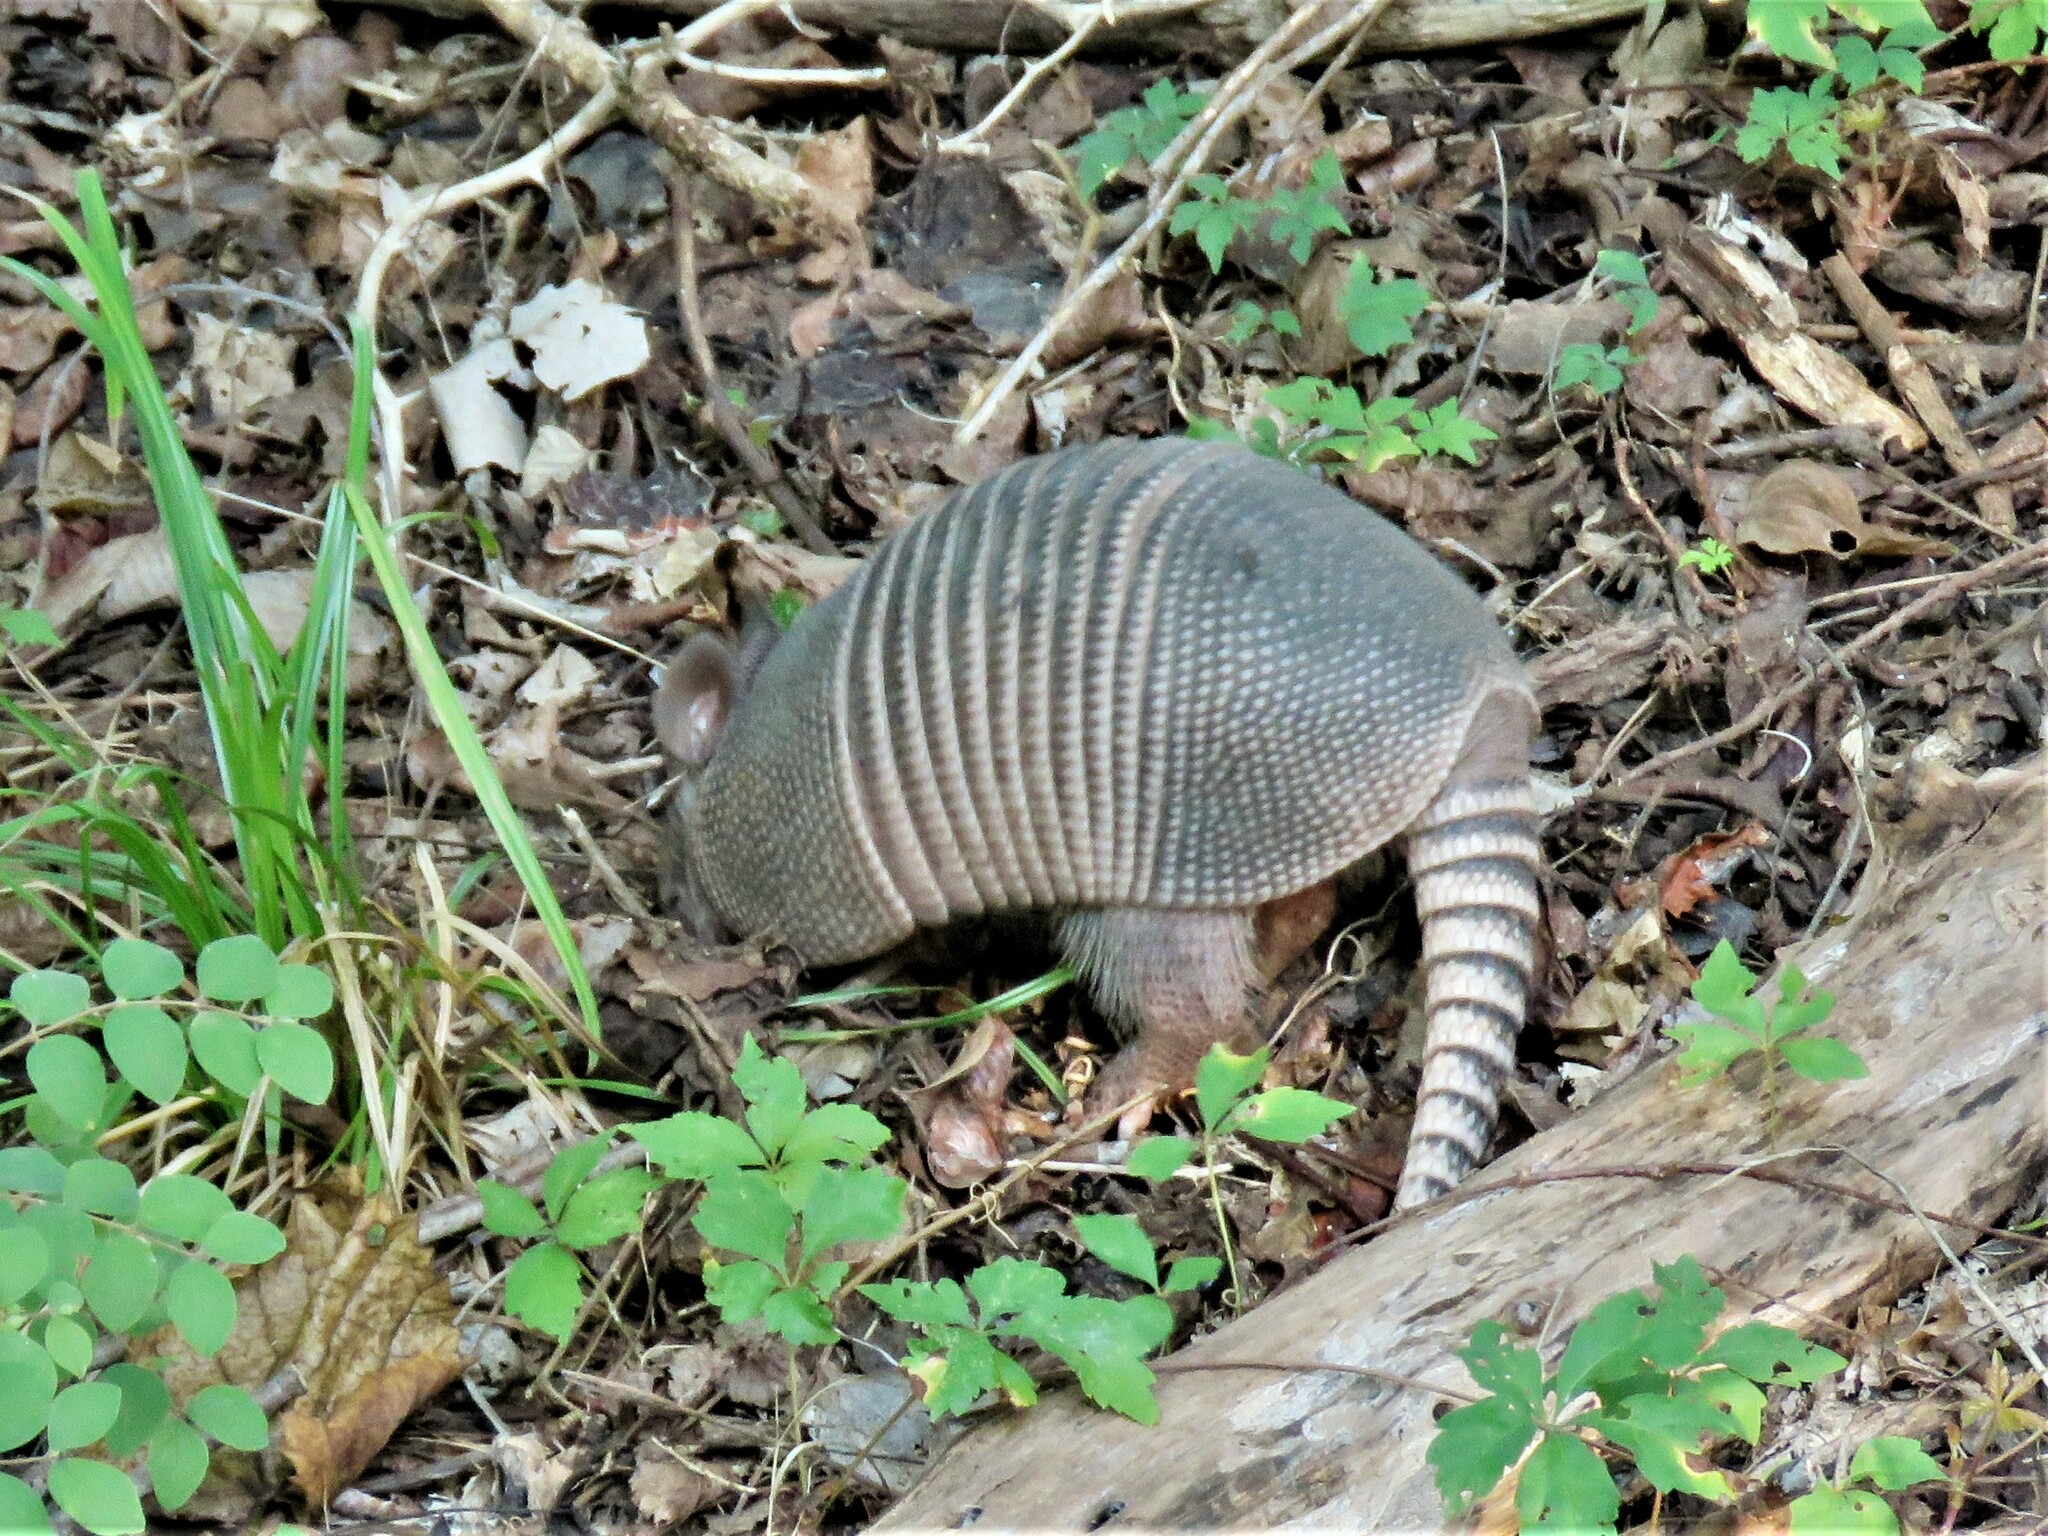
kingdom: Animalia
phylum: Chordata
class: Mammalia
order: Cingulata
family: Dasypodidae
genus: Dasypus
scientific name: Dasypus novemcinctus
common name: Nine-banded armadillo
